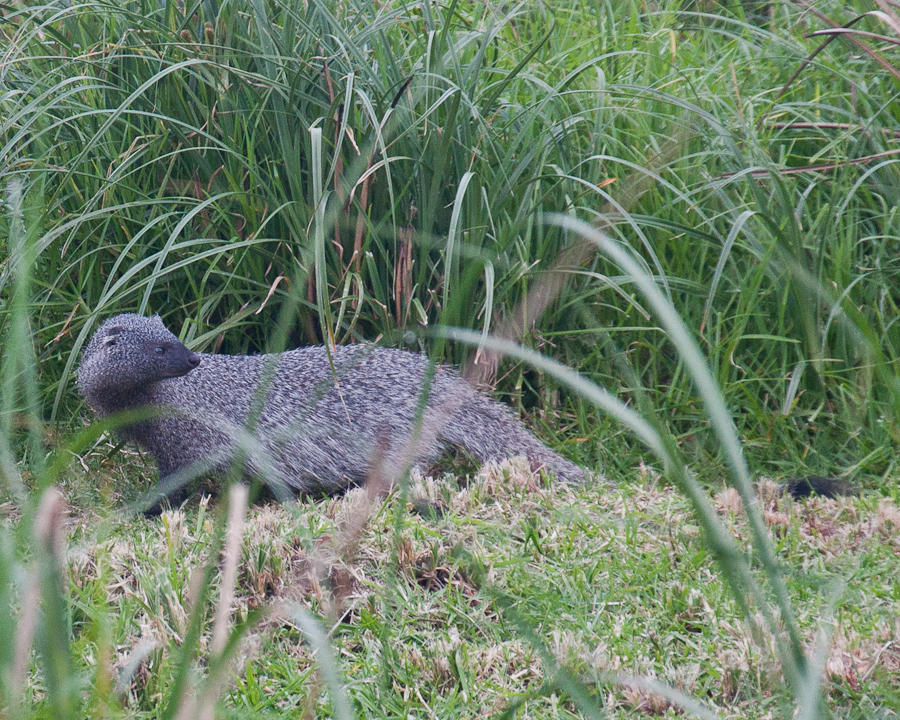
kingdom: Animalia
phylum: Chordata
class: Mammalia
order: Carnivora
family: Herpestidae
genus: Herpestes
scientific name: Herpestes ichneumon
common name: Egyptian mongoose
